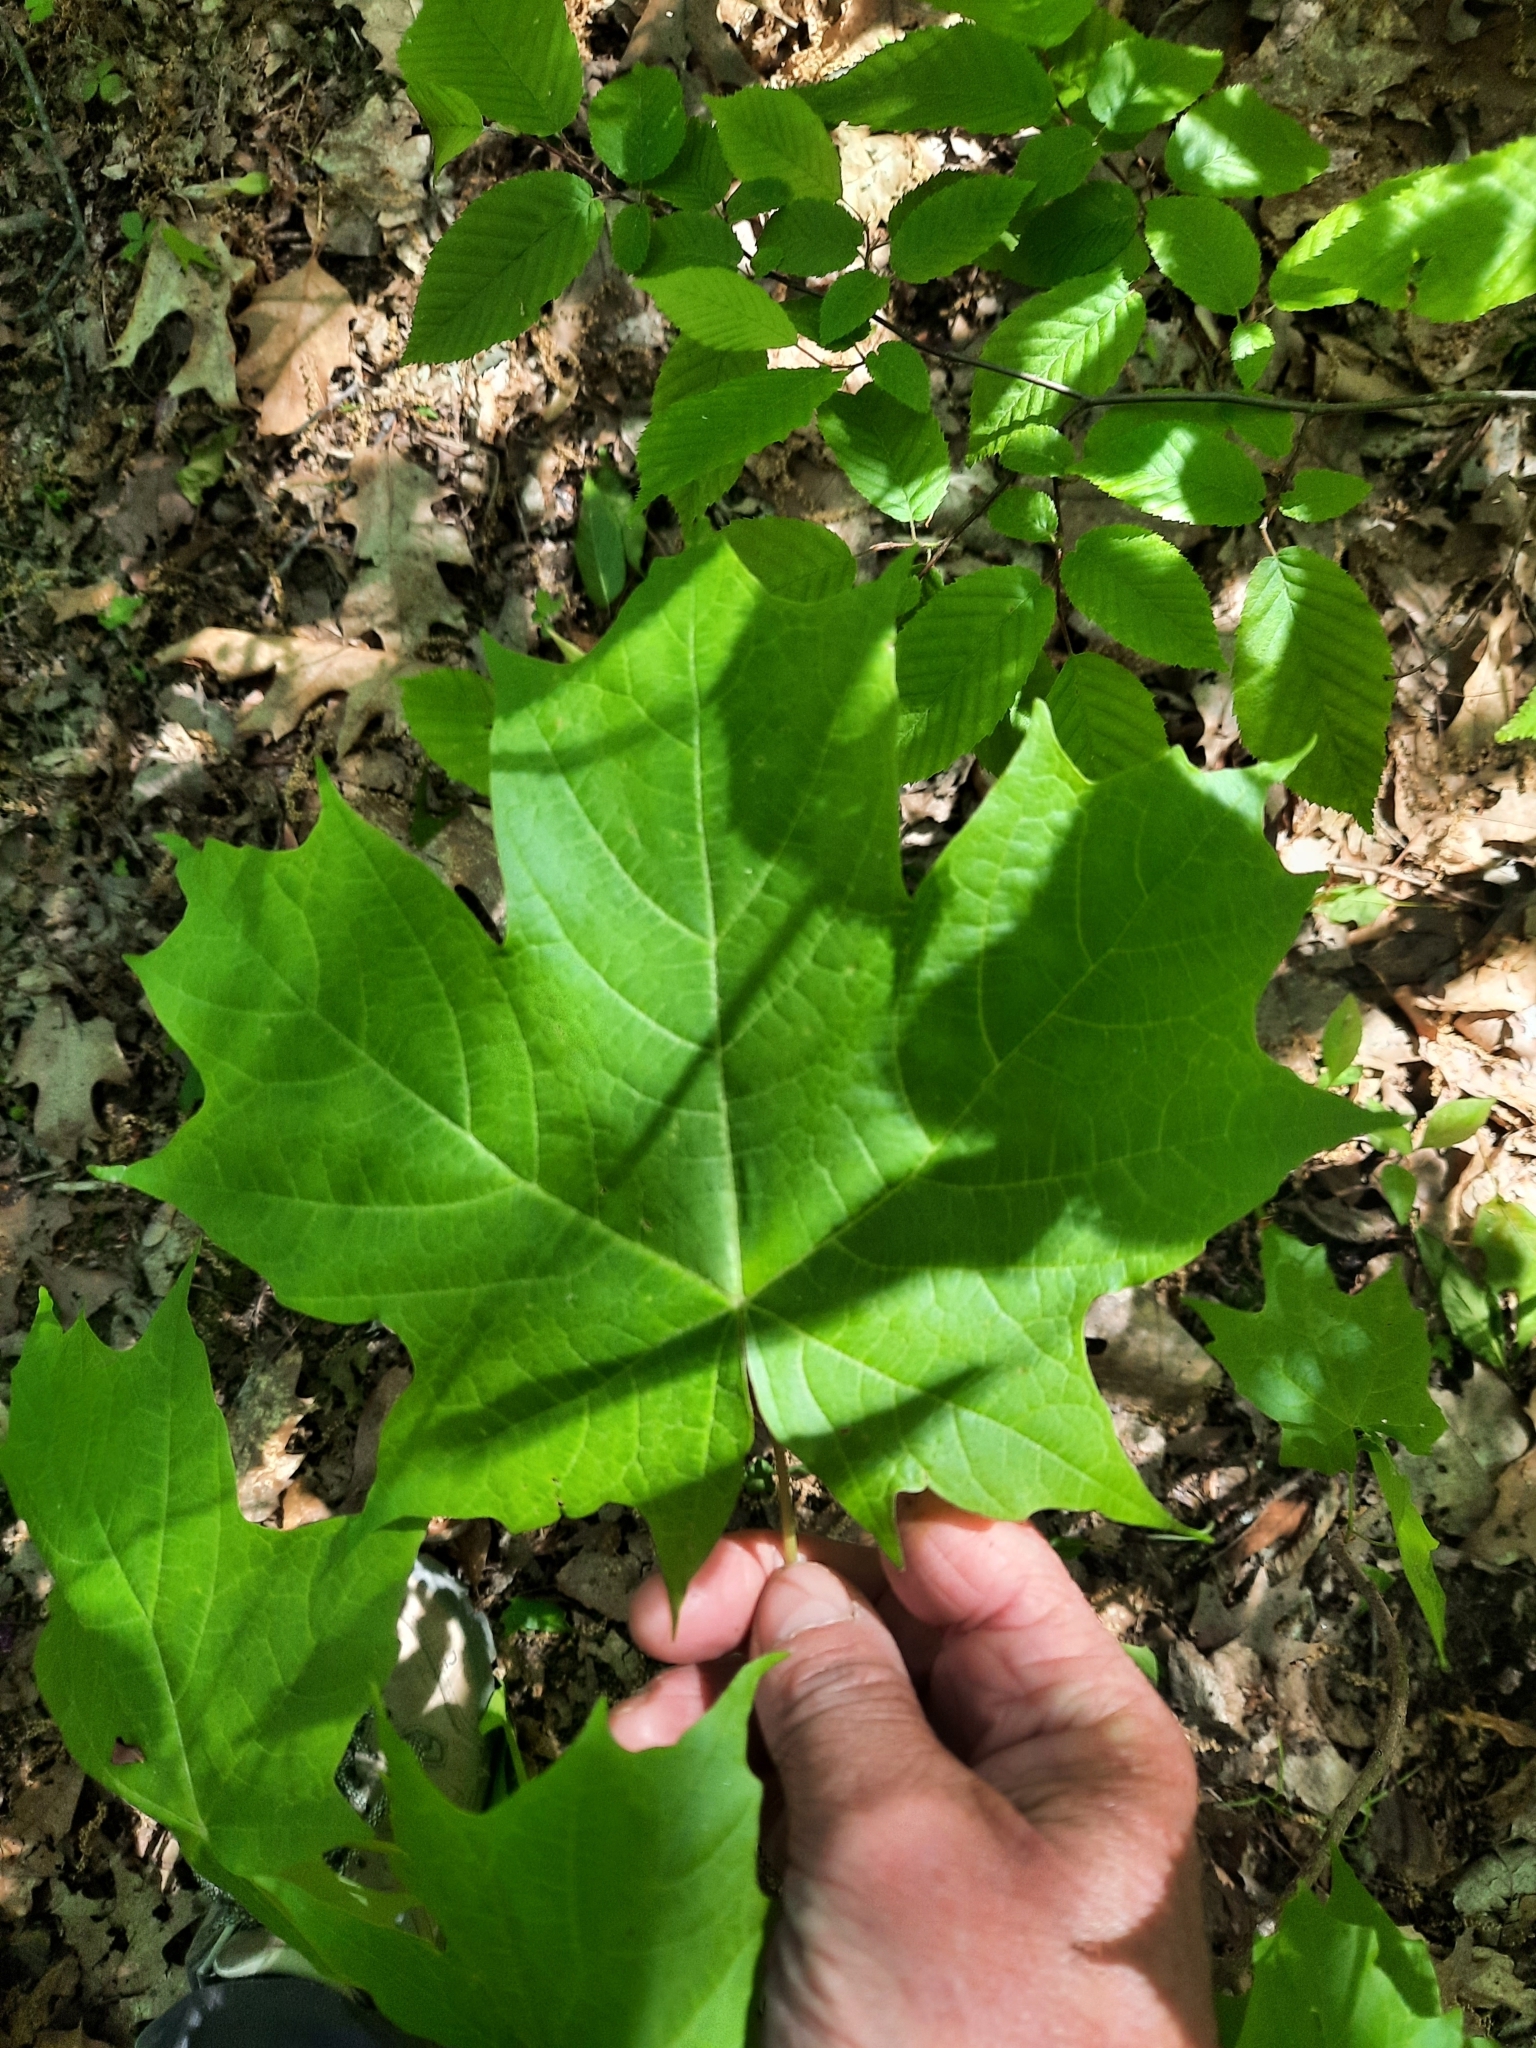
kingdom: Plantae
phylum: Tracheophyta
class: Magnoliopsida
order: Sapindales
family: Sapindaceae
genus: Acer
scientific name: Acer saccharum
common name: Sugar maple
